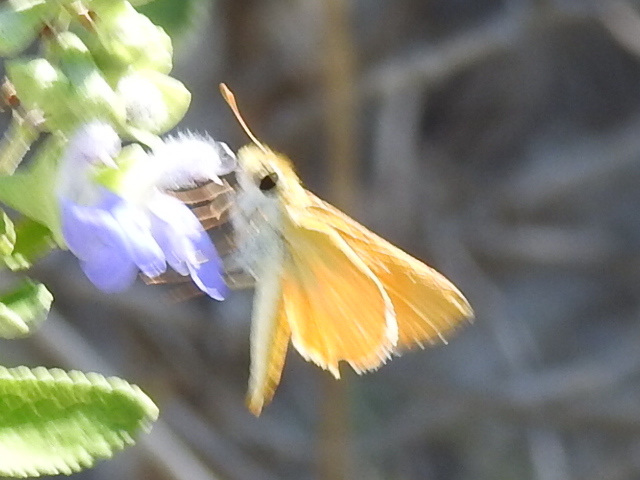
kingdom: Animalia
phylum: Arthropoda
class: Insecta
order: Lepidoptera
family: Hesperiidae
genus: Copaeodes
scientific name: Copaeodes aurantiaca
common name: Orange skipperling
